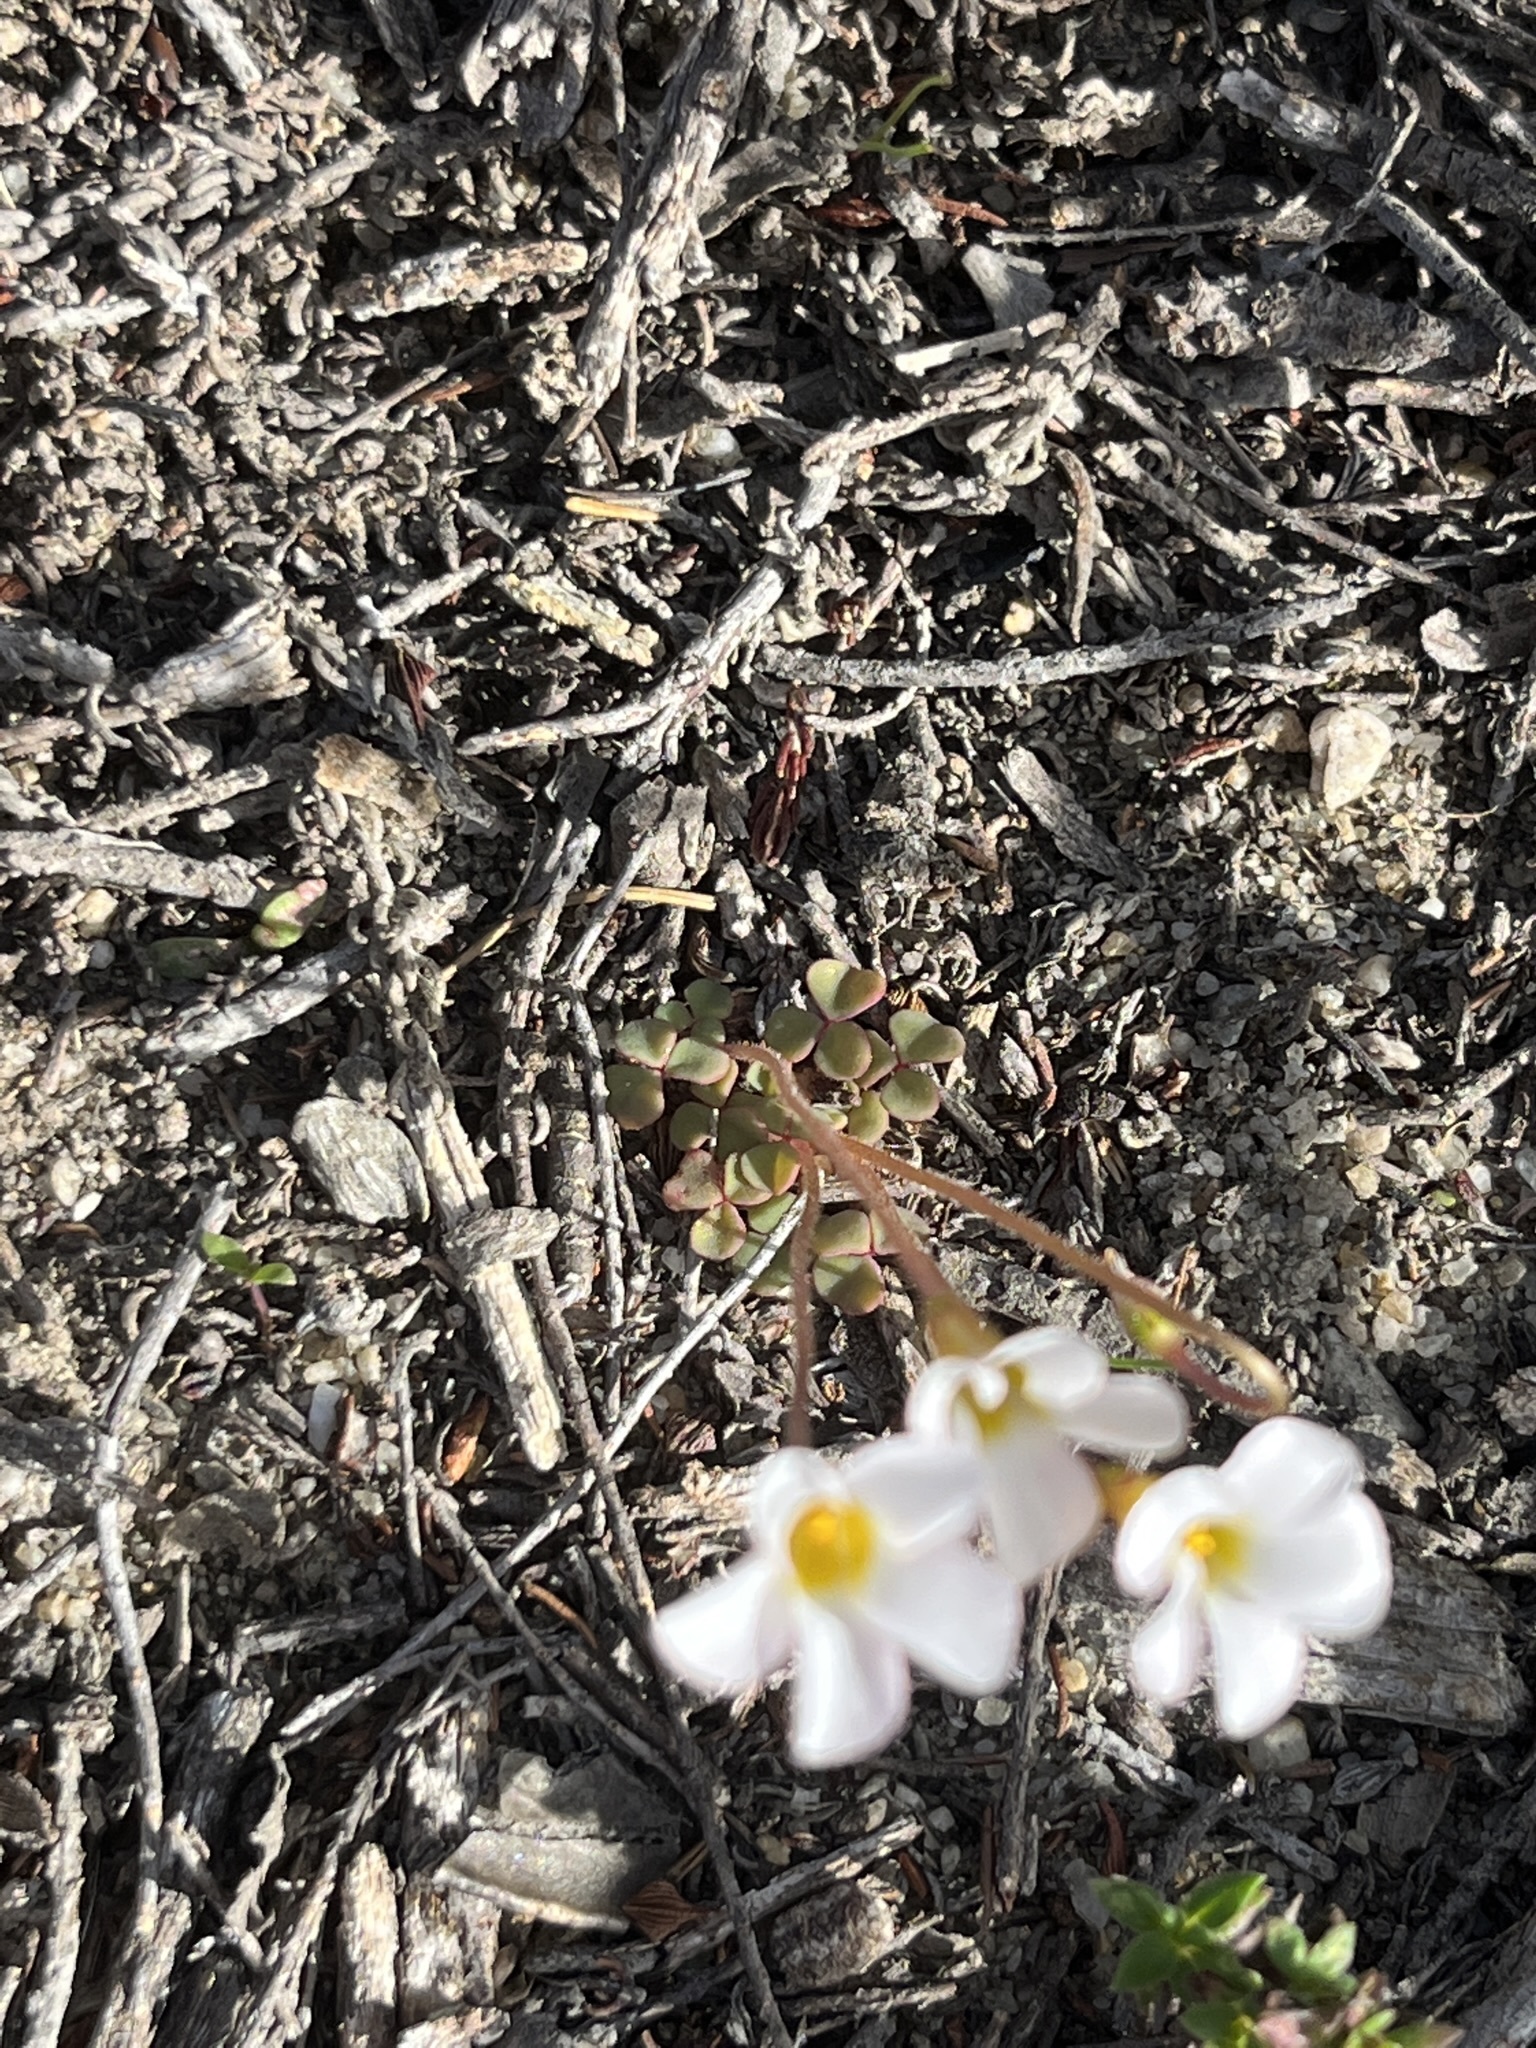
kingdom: Plantae
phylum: Tracheophyta
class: Magnoliopsida
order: Oxalidales
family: Oxalidaceae
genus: Oxalis
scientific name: Oxalis punctata
